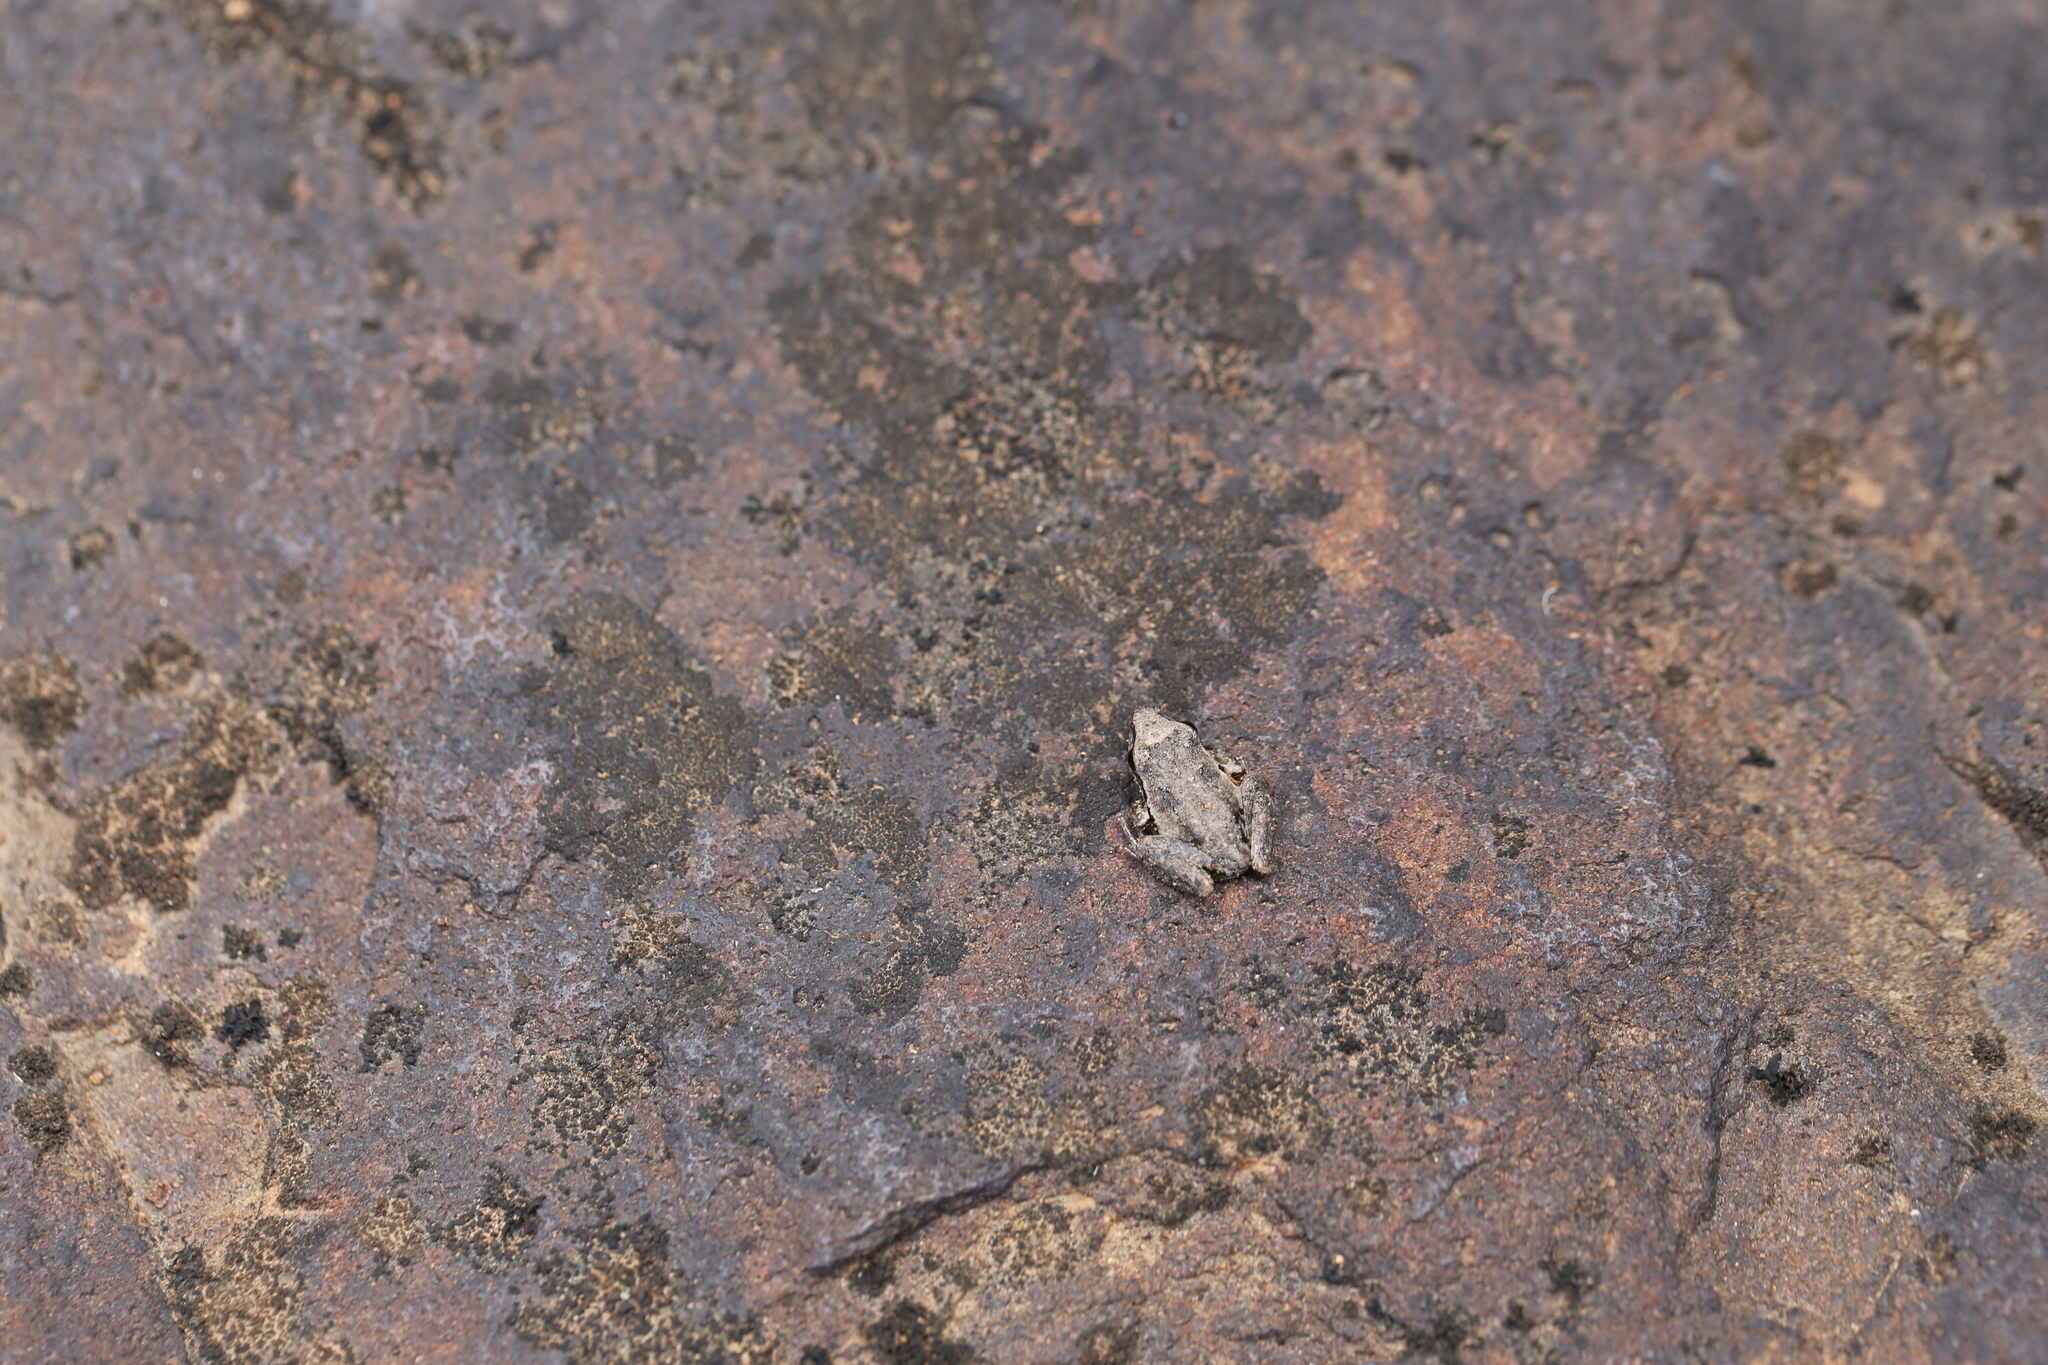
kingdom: Animalia
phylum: Chordata
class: Amphibia
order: Anura
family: Pelodryadidae
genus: Litoria
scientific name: Litoria latopalmata
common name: Broad-palmed rocket frog
